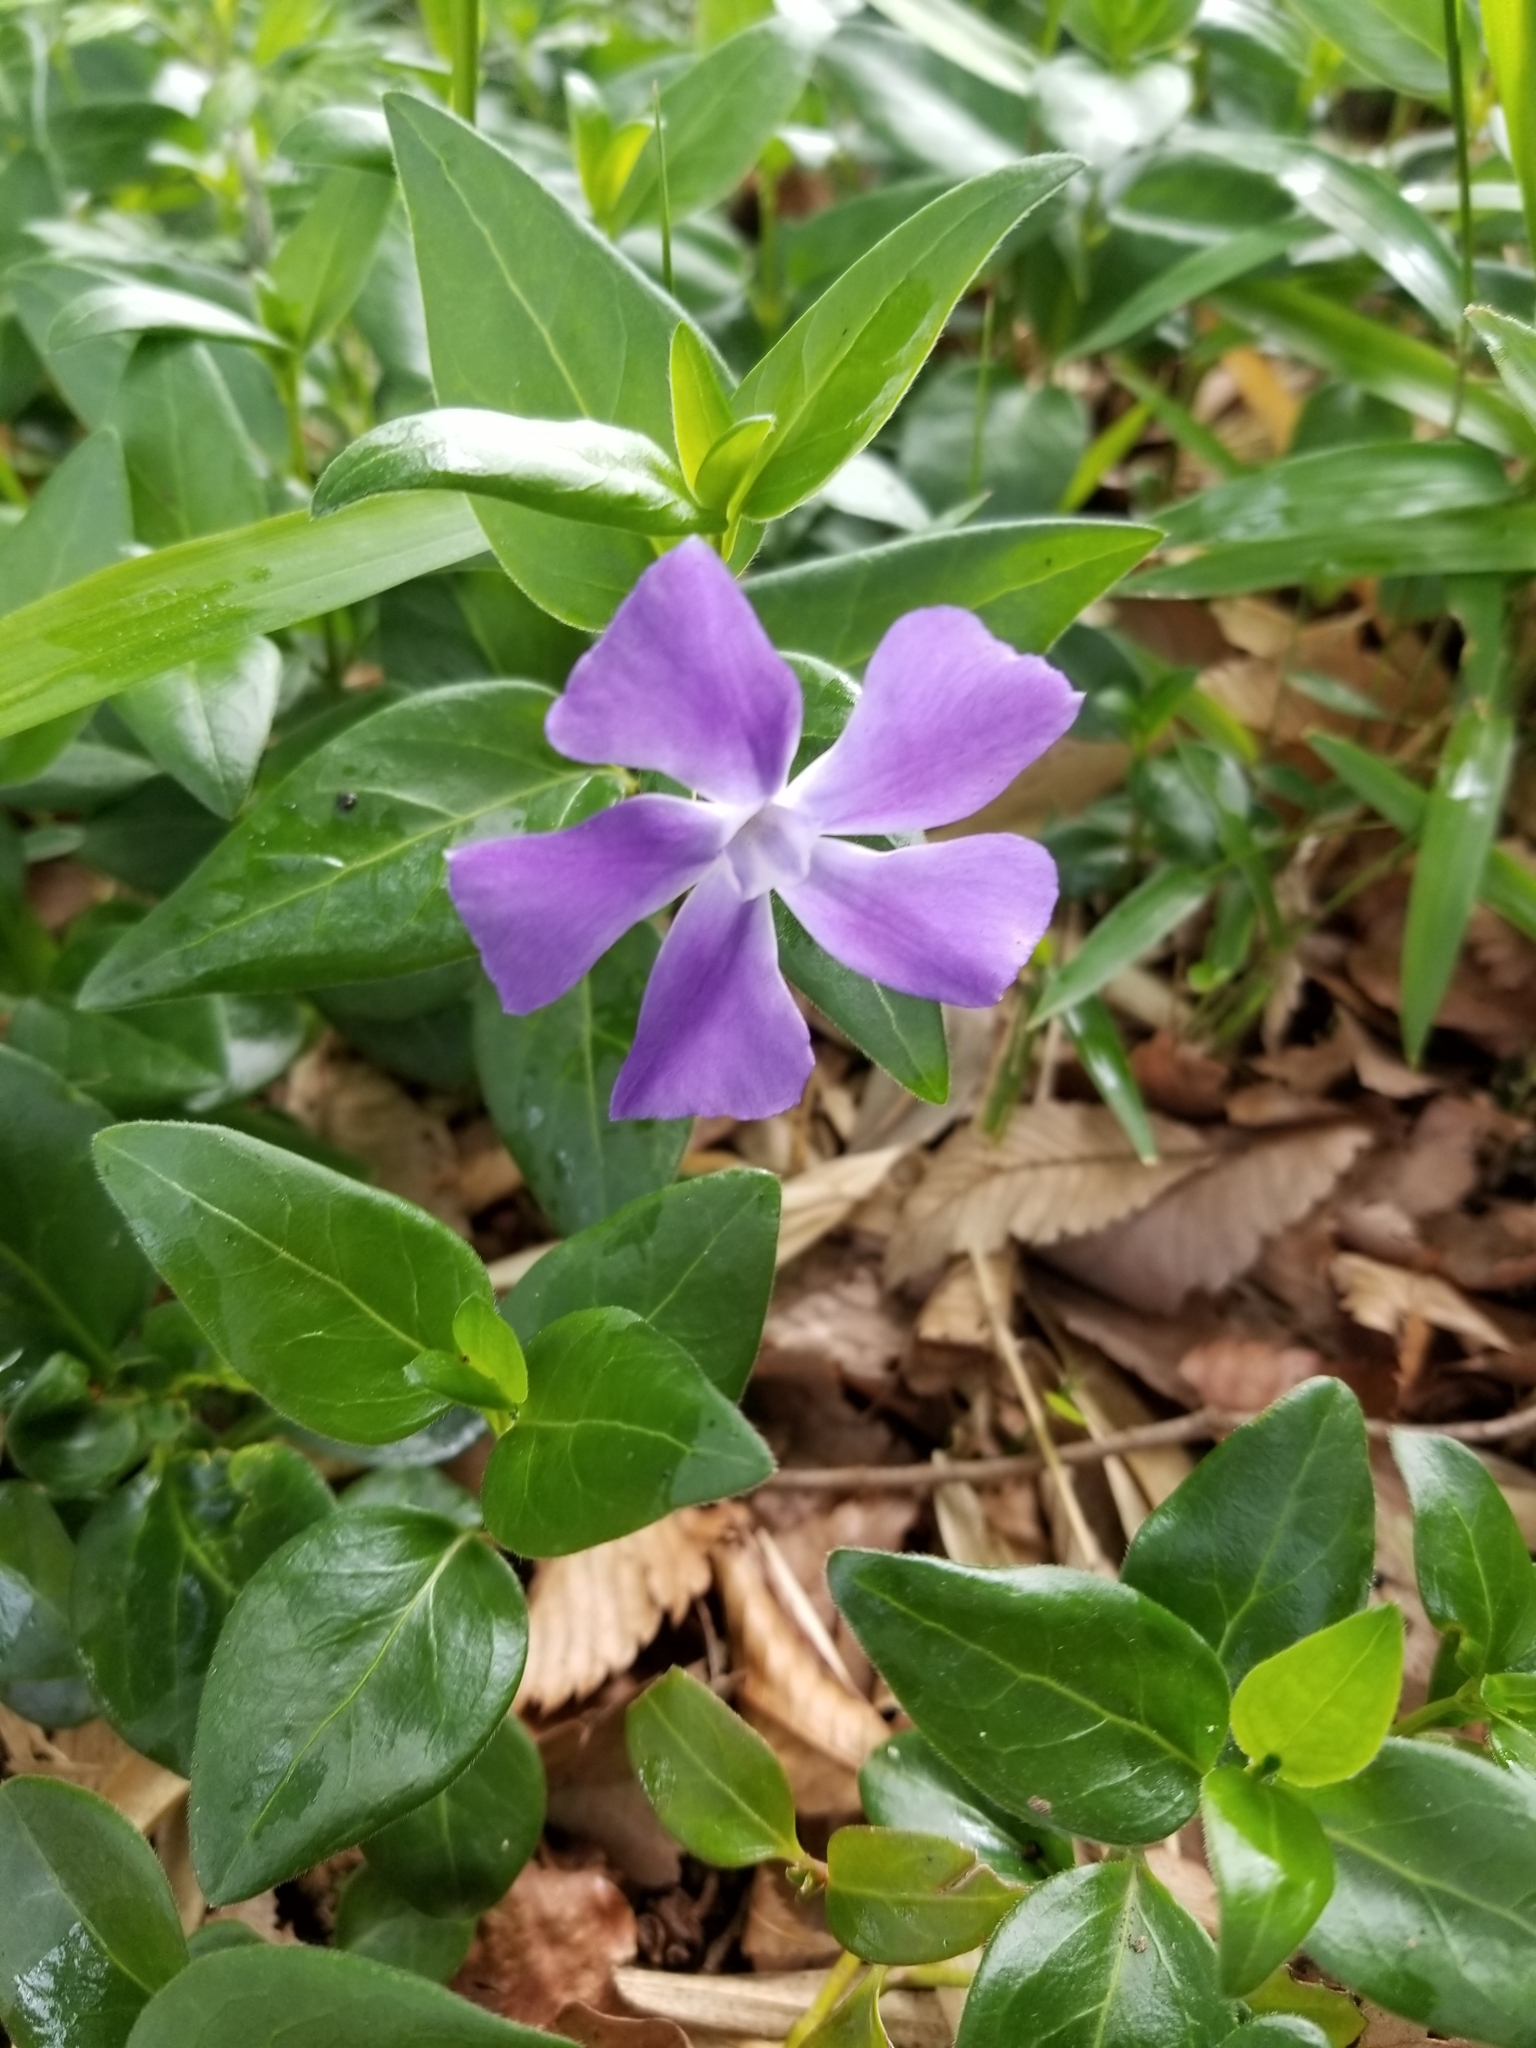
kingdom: Plantae
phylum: Tracheophyta
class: Magnoliopsida
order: Gentianales
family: Apocynaceae
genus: Vinca
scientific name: Vinca major
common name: Greater periwinkle
